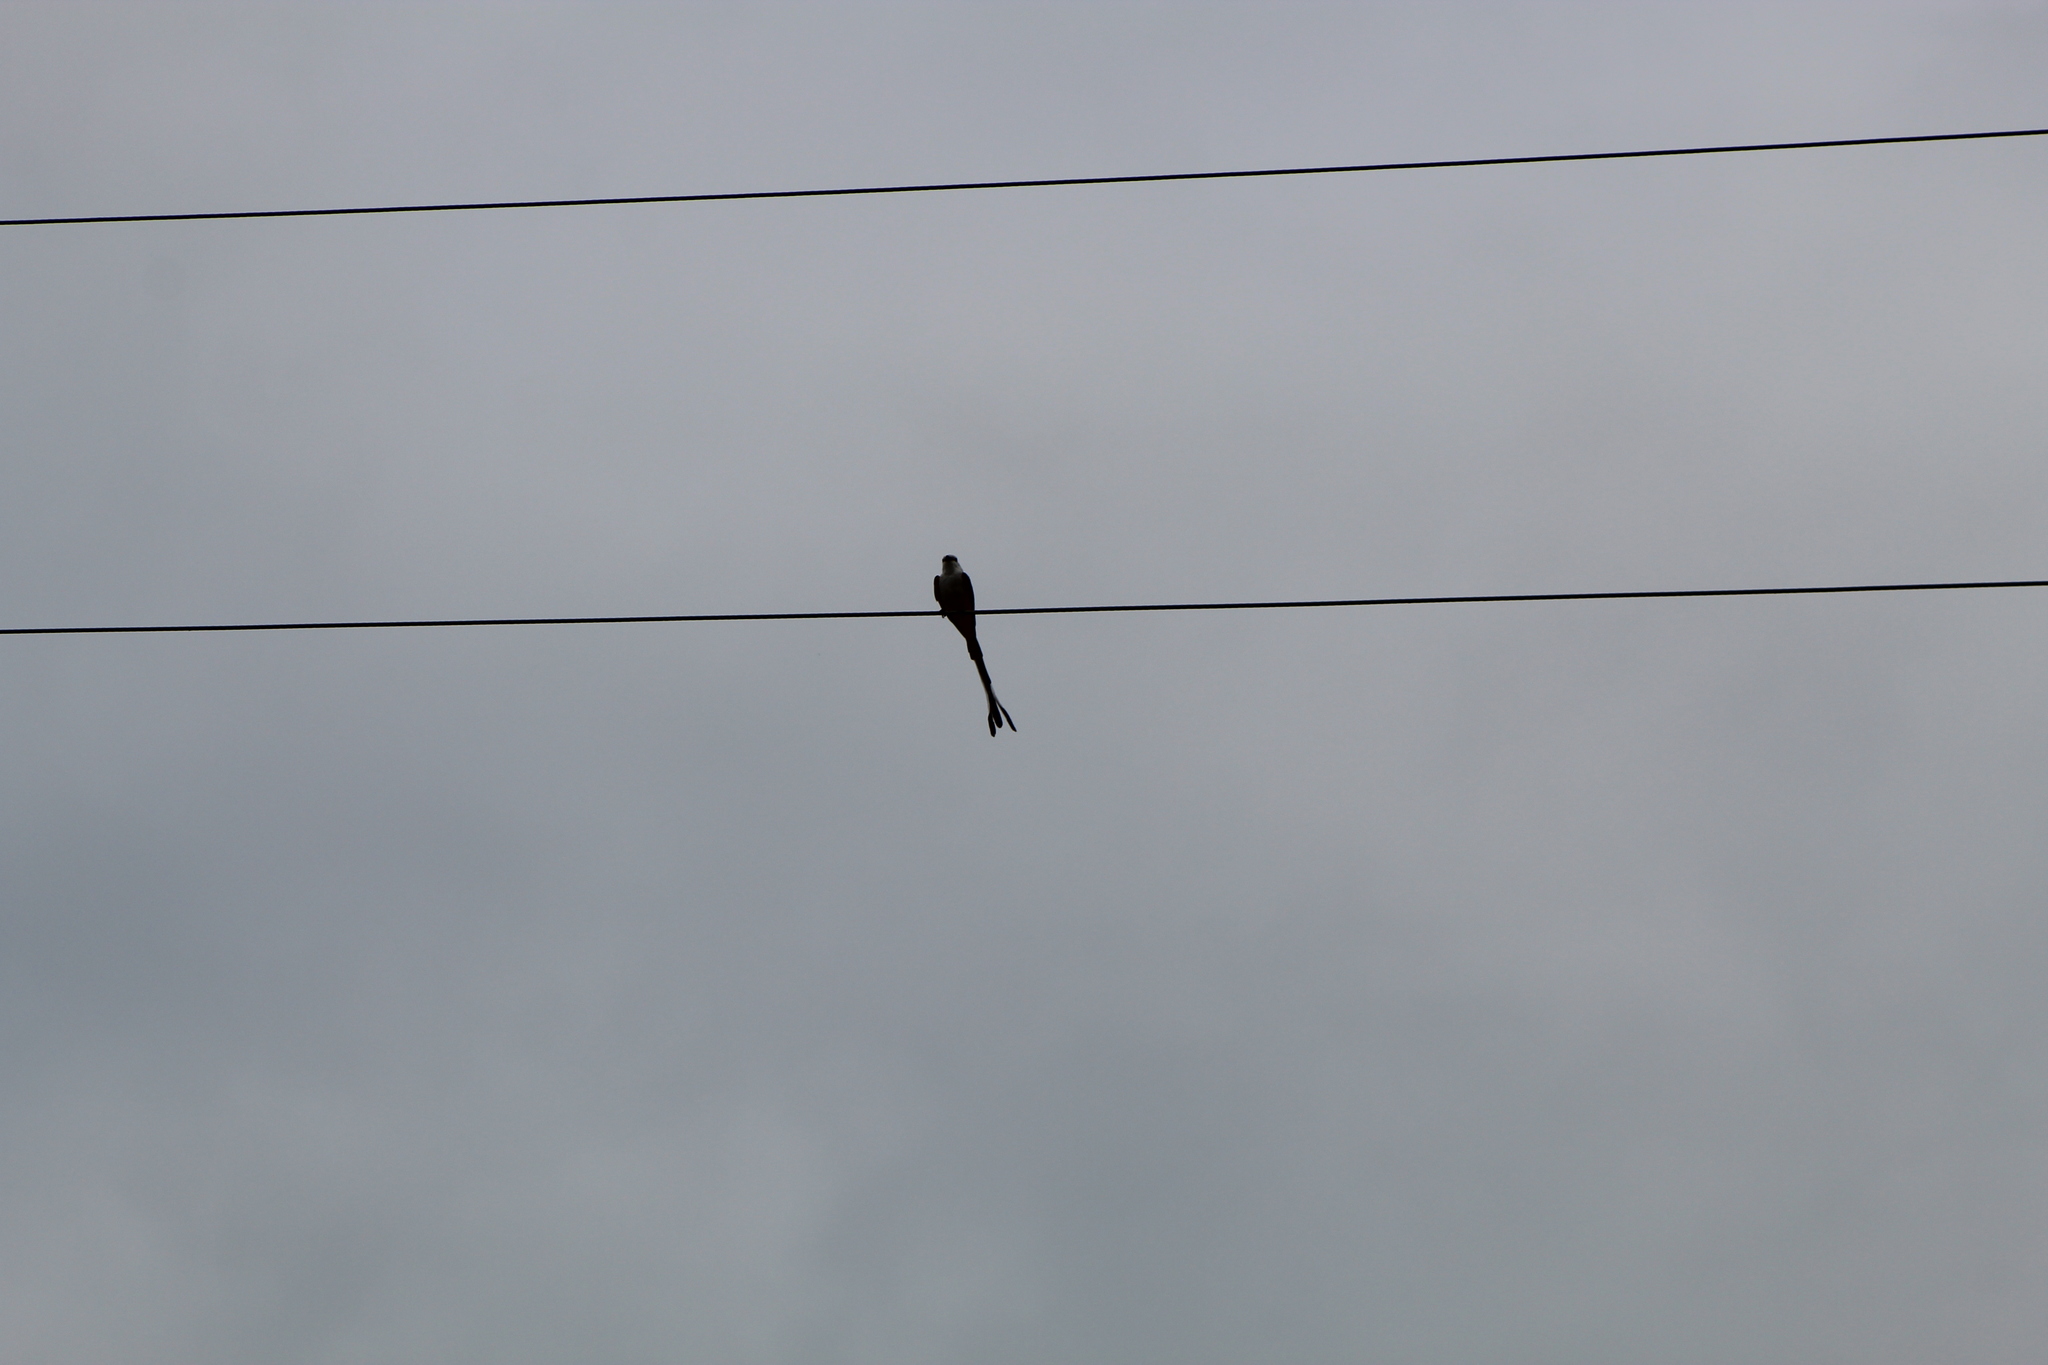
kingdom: Animalia
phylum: Chordata
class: Aves
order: Passeriformes
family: Tyrannidae
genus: Tyrannus
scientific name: Tyrannus forficatus
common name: Scissor-tailed flycatcher
